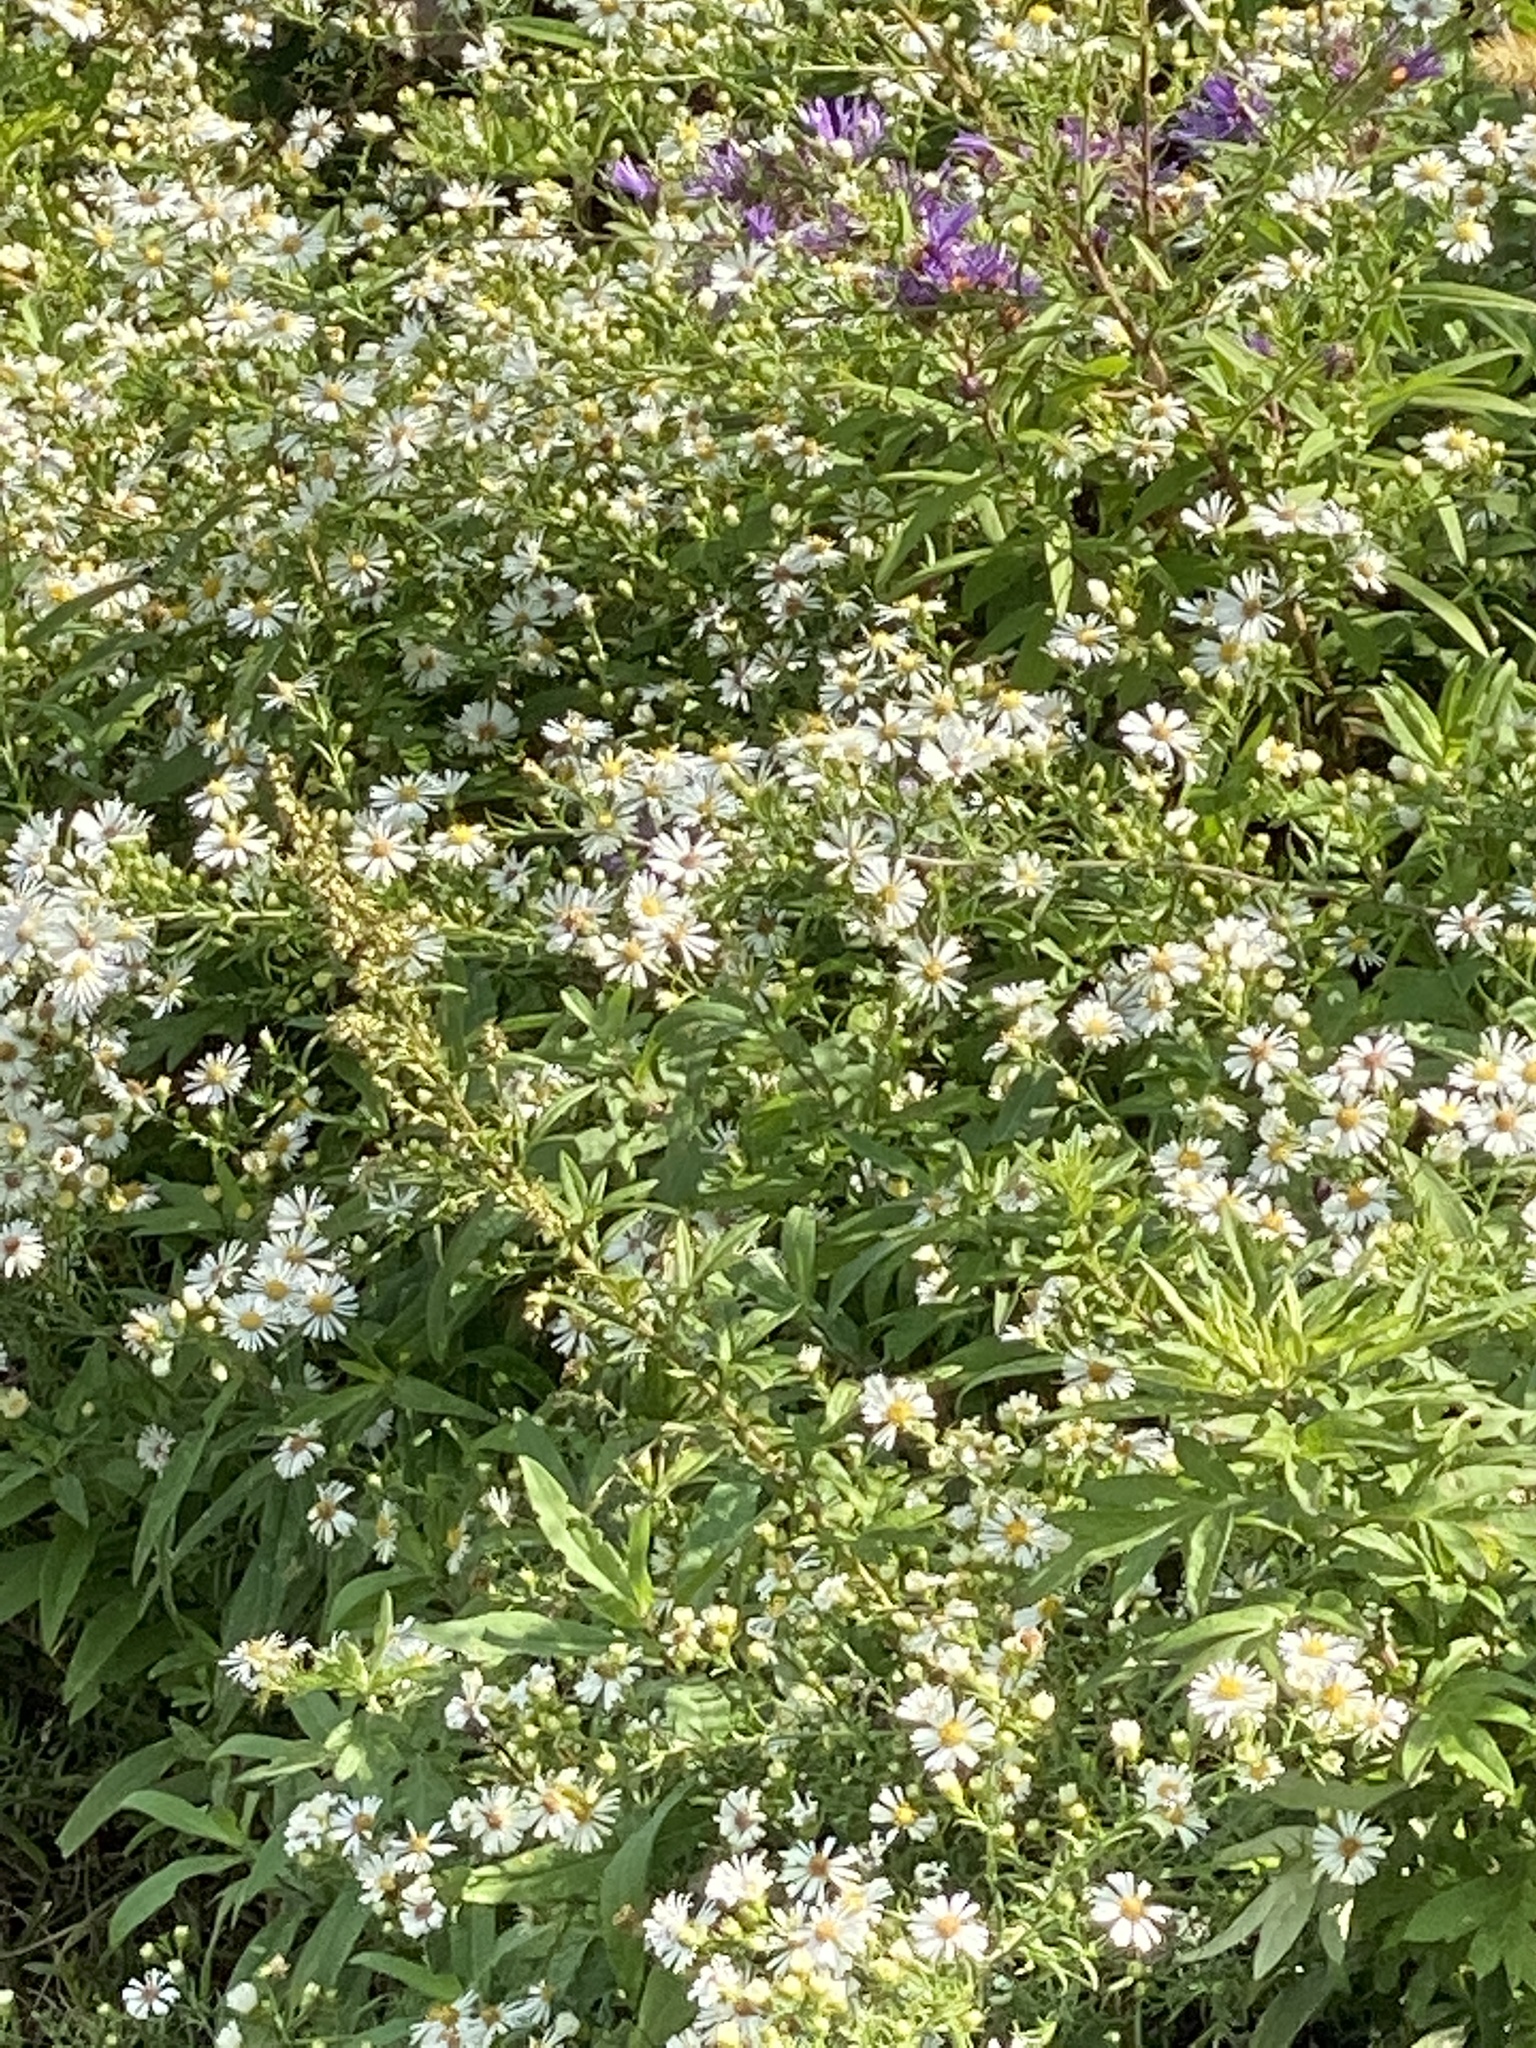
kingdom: Plantae
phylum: Tracheophyta
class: Magnoliopsida
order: Asterales
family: Asteraceae
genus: Symphyotrichum
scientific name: Symphyotrichum pilosum
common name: Awl aster
